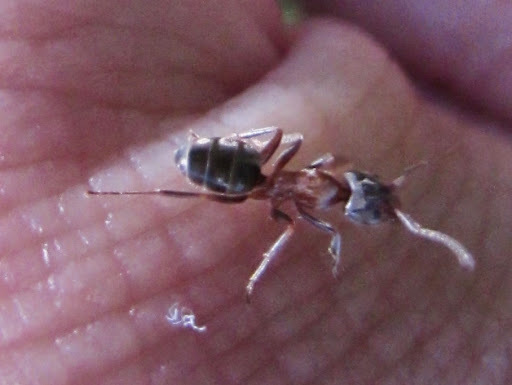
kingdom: Animalia
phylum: Arthropoda
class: Insecta
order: Hymenoptera
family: Formicidae
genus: Liometopum
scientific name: Liometopum occidentale
